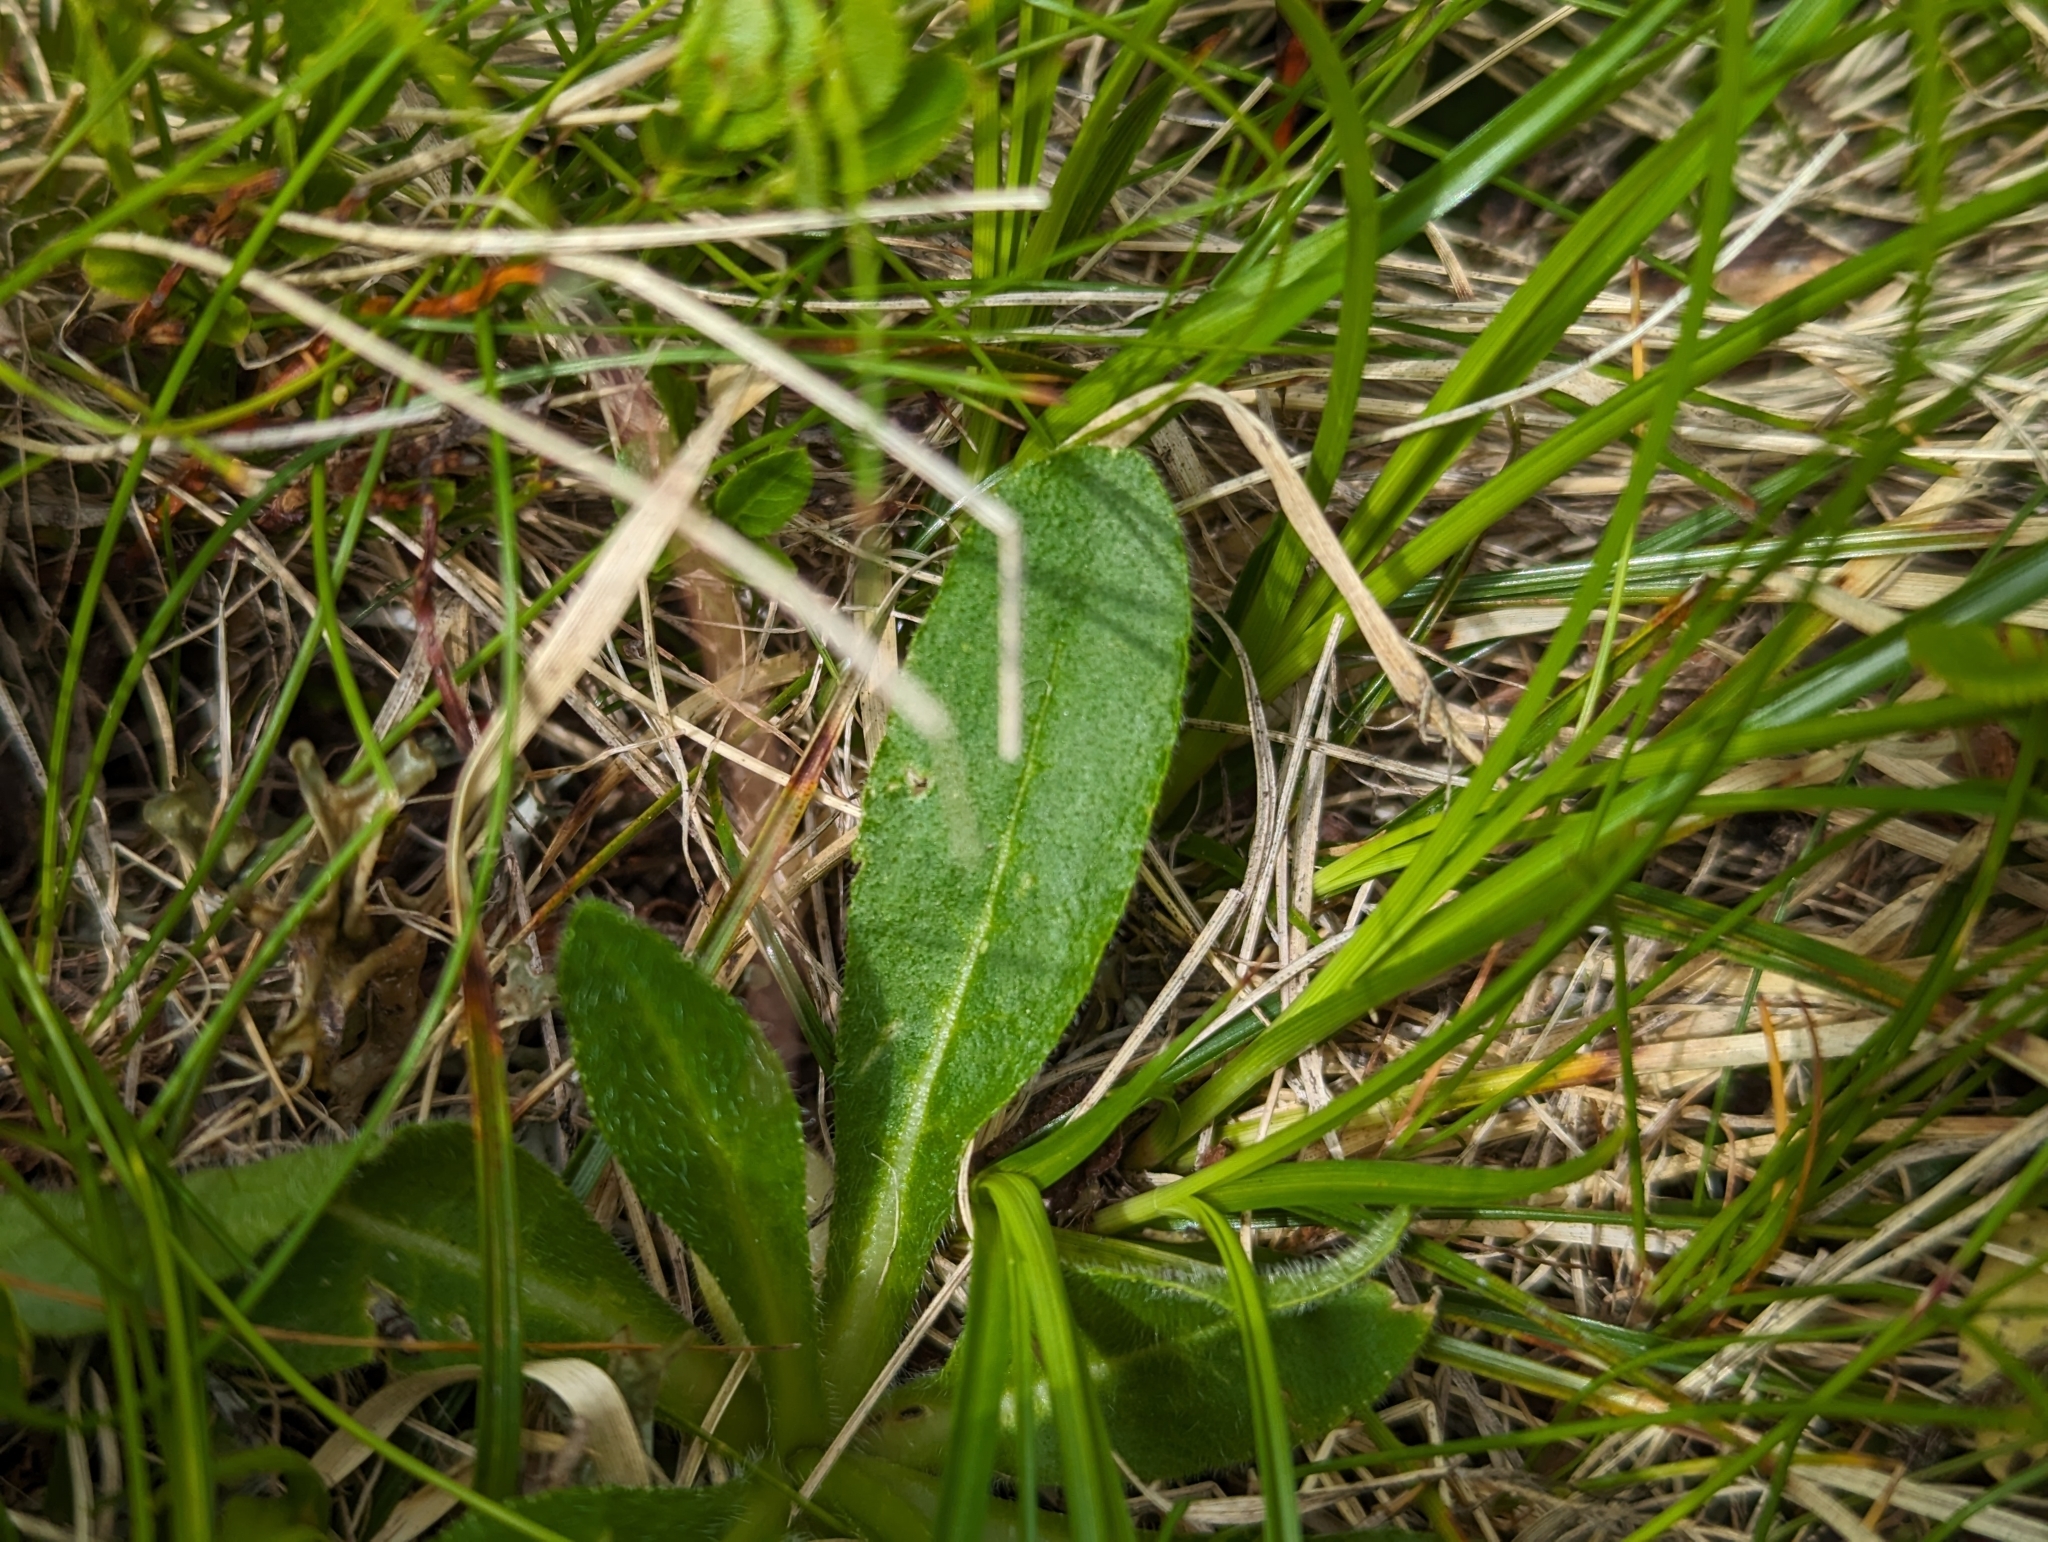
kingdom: Plantae
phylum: Tracheophyta
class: Magnoliopsida
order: Asterales
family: Campanulaceae
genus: Campanula
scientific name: Campanula barbata
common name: Bearded bellflower
